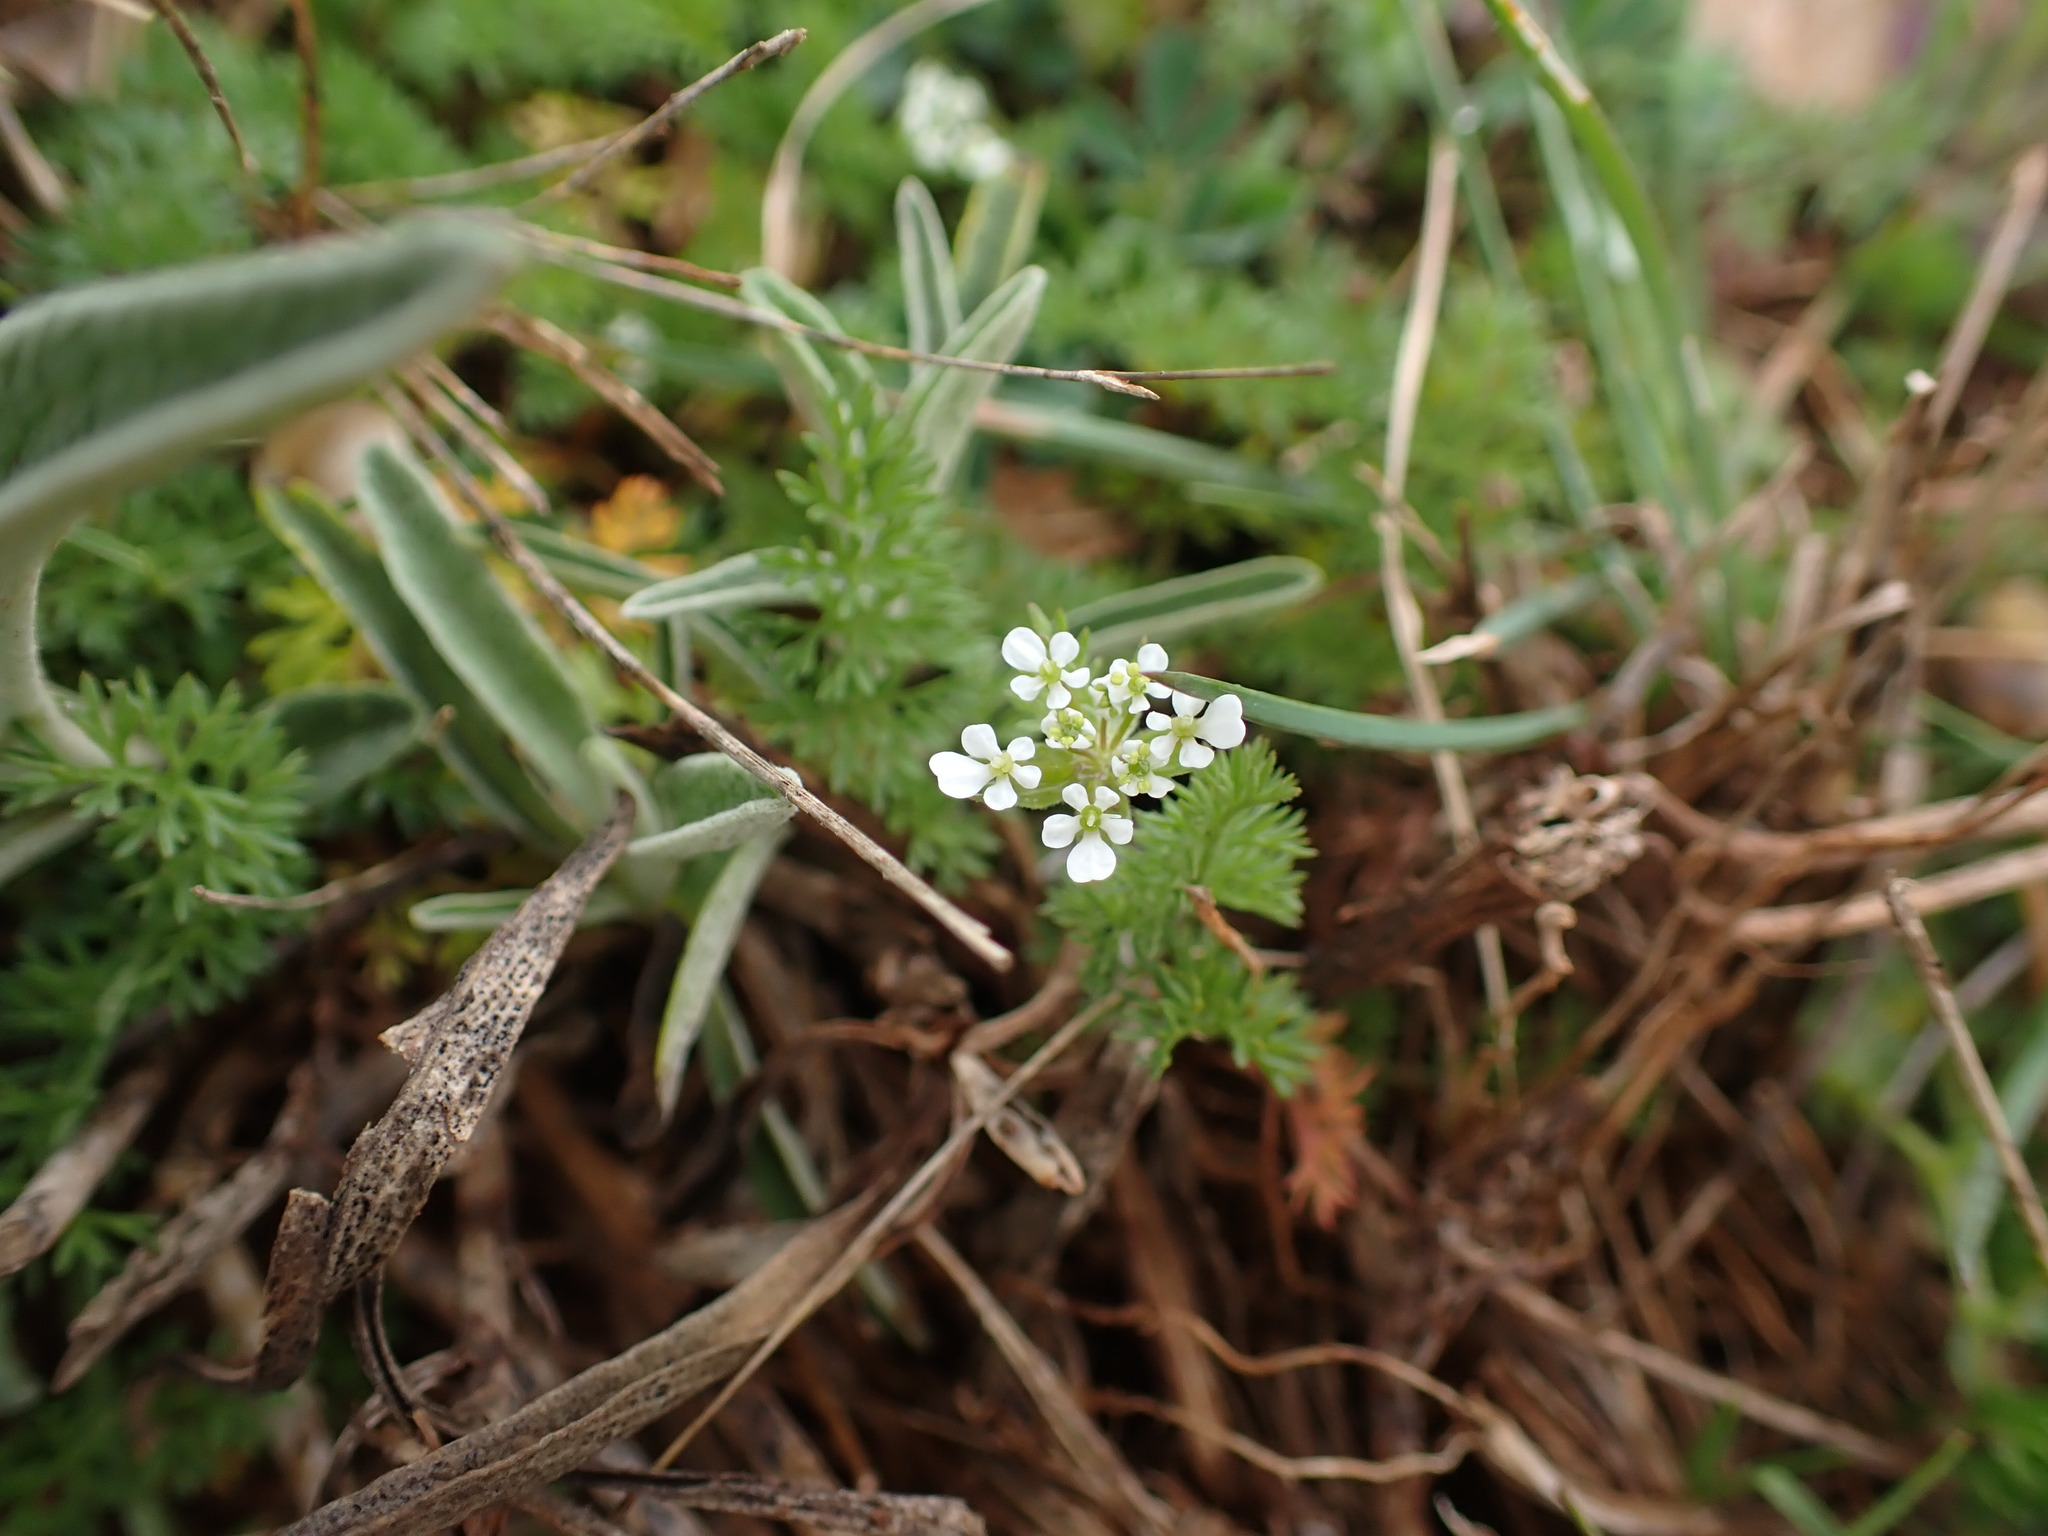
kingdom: Plantae
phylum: Tracheophyta
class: Magnoliopsida
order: Apiales
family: Apiaceae
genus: Scandix
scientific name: Scandix pecten-veneris
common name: Shepherd's-needle
